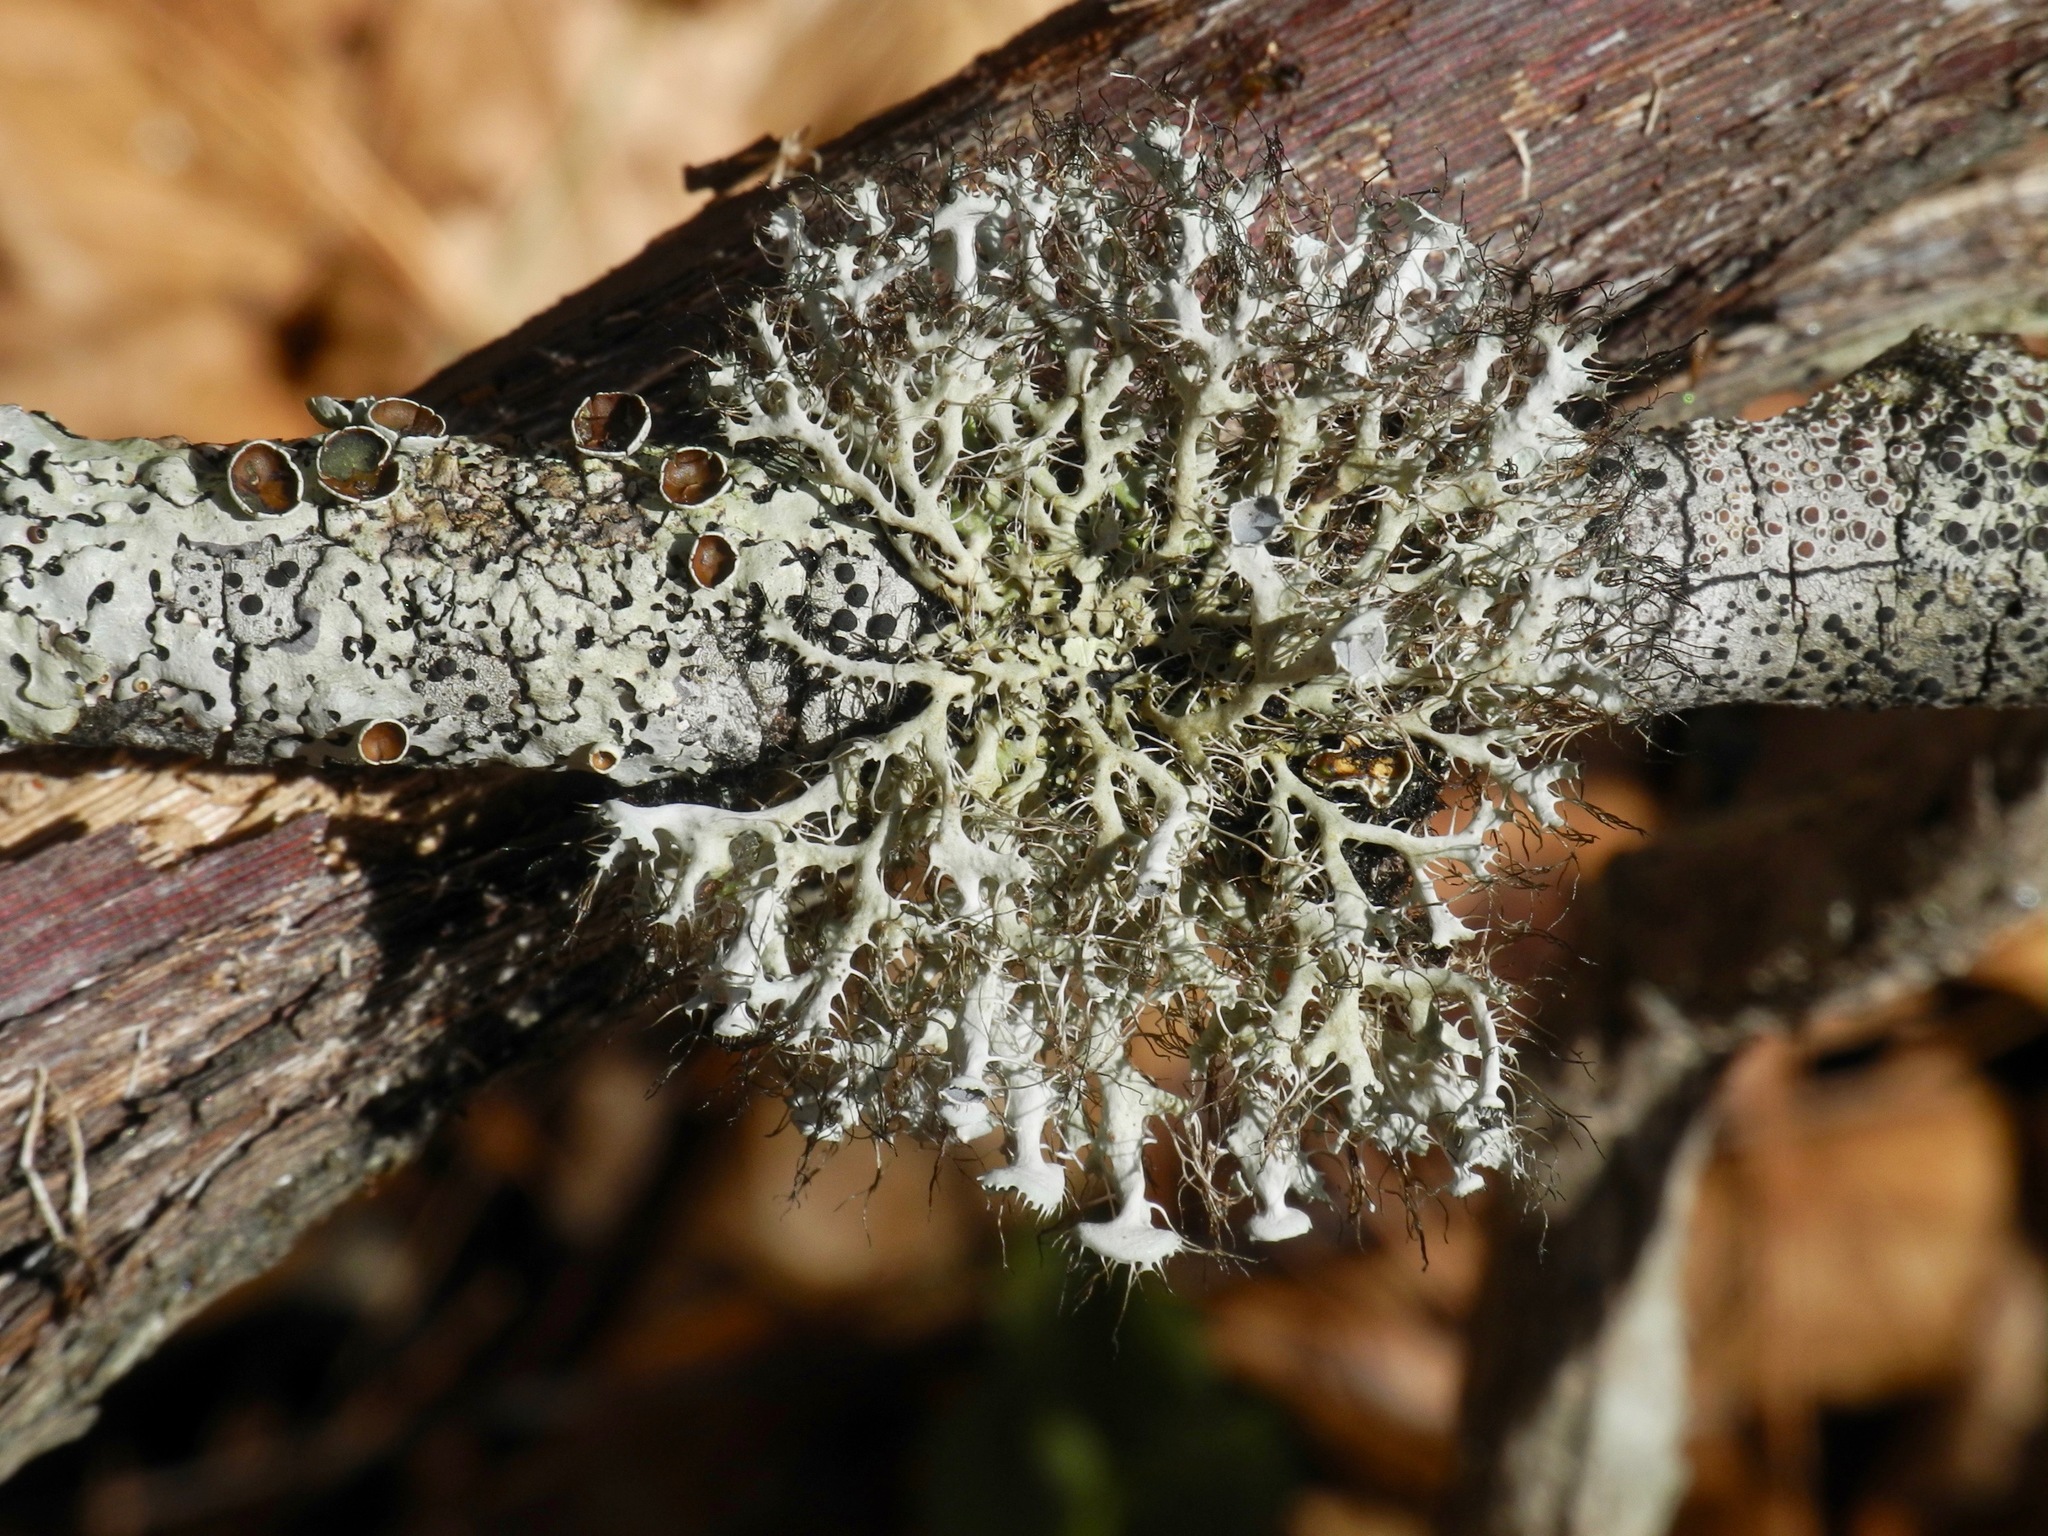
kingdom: Fungi
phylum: Ascomycota
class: Lecanoromycetes
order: Caliciales
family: Physciaceae
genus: Heterodermia
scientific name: Heterodermia echinata
